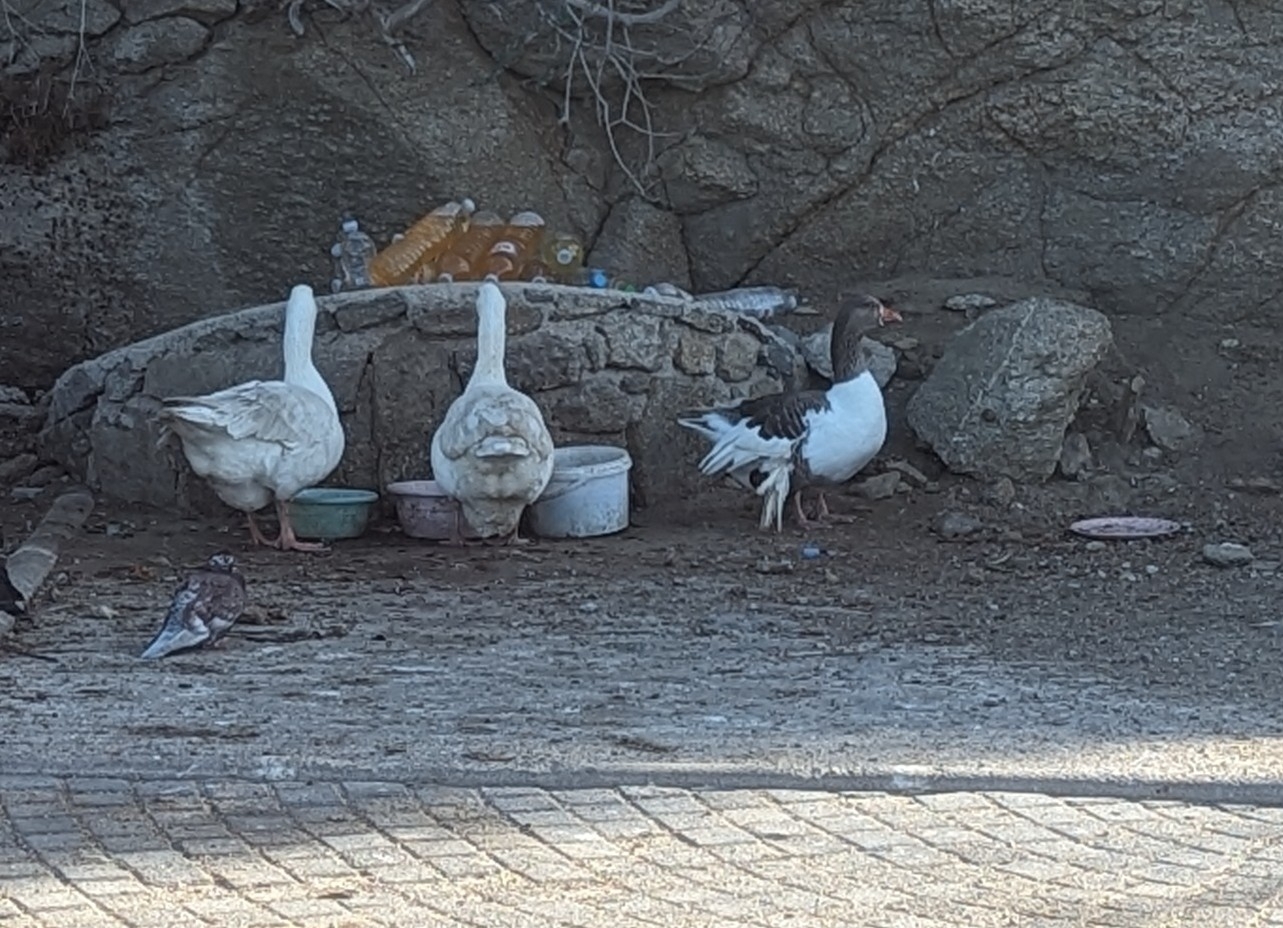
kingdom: Animalia
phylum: Chordata
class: Aves
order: Anseriformes
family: Anatidae
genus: Anser
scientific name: Anser anser
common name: Greylag goose
